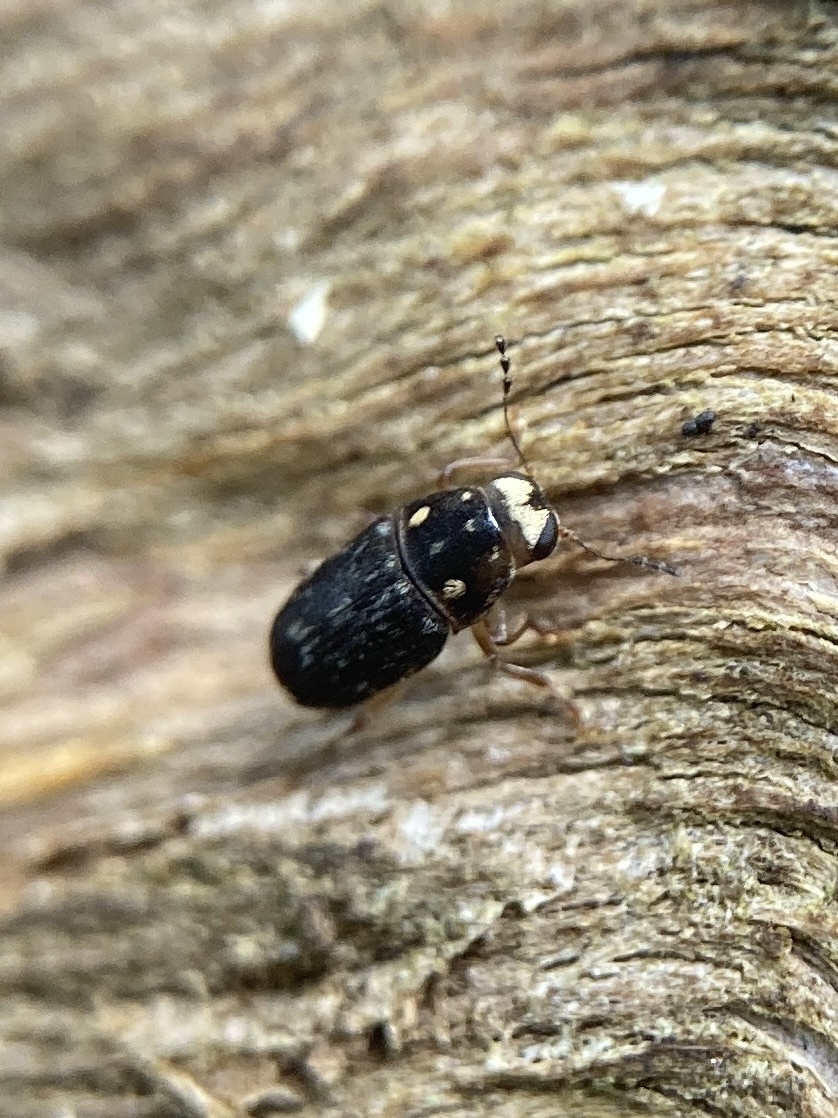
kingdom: Animalia
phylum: Arthropoda
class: Insecta
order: Coleoptera
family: Anthribidae
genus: Xanthoderopygus
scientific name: Xanthoderopygus
